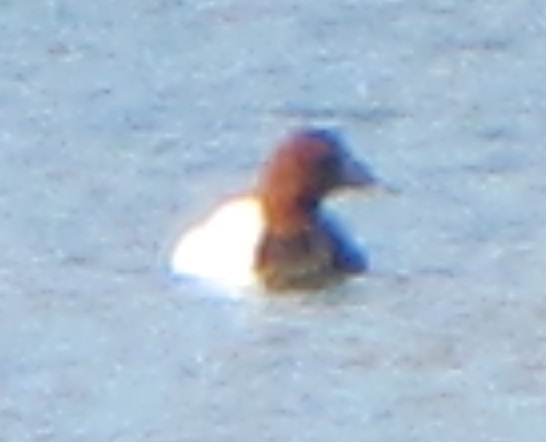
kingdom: Animalia
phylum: Chordata
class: Aves
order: Anseriformes
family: Anatidae
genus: Aythya
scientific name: Aythya valisineria
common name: Canvasback
